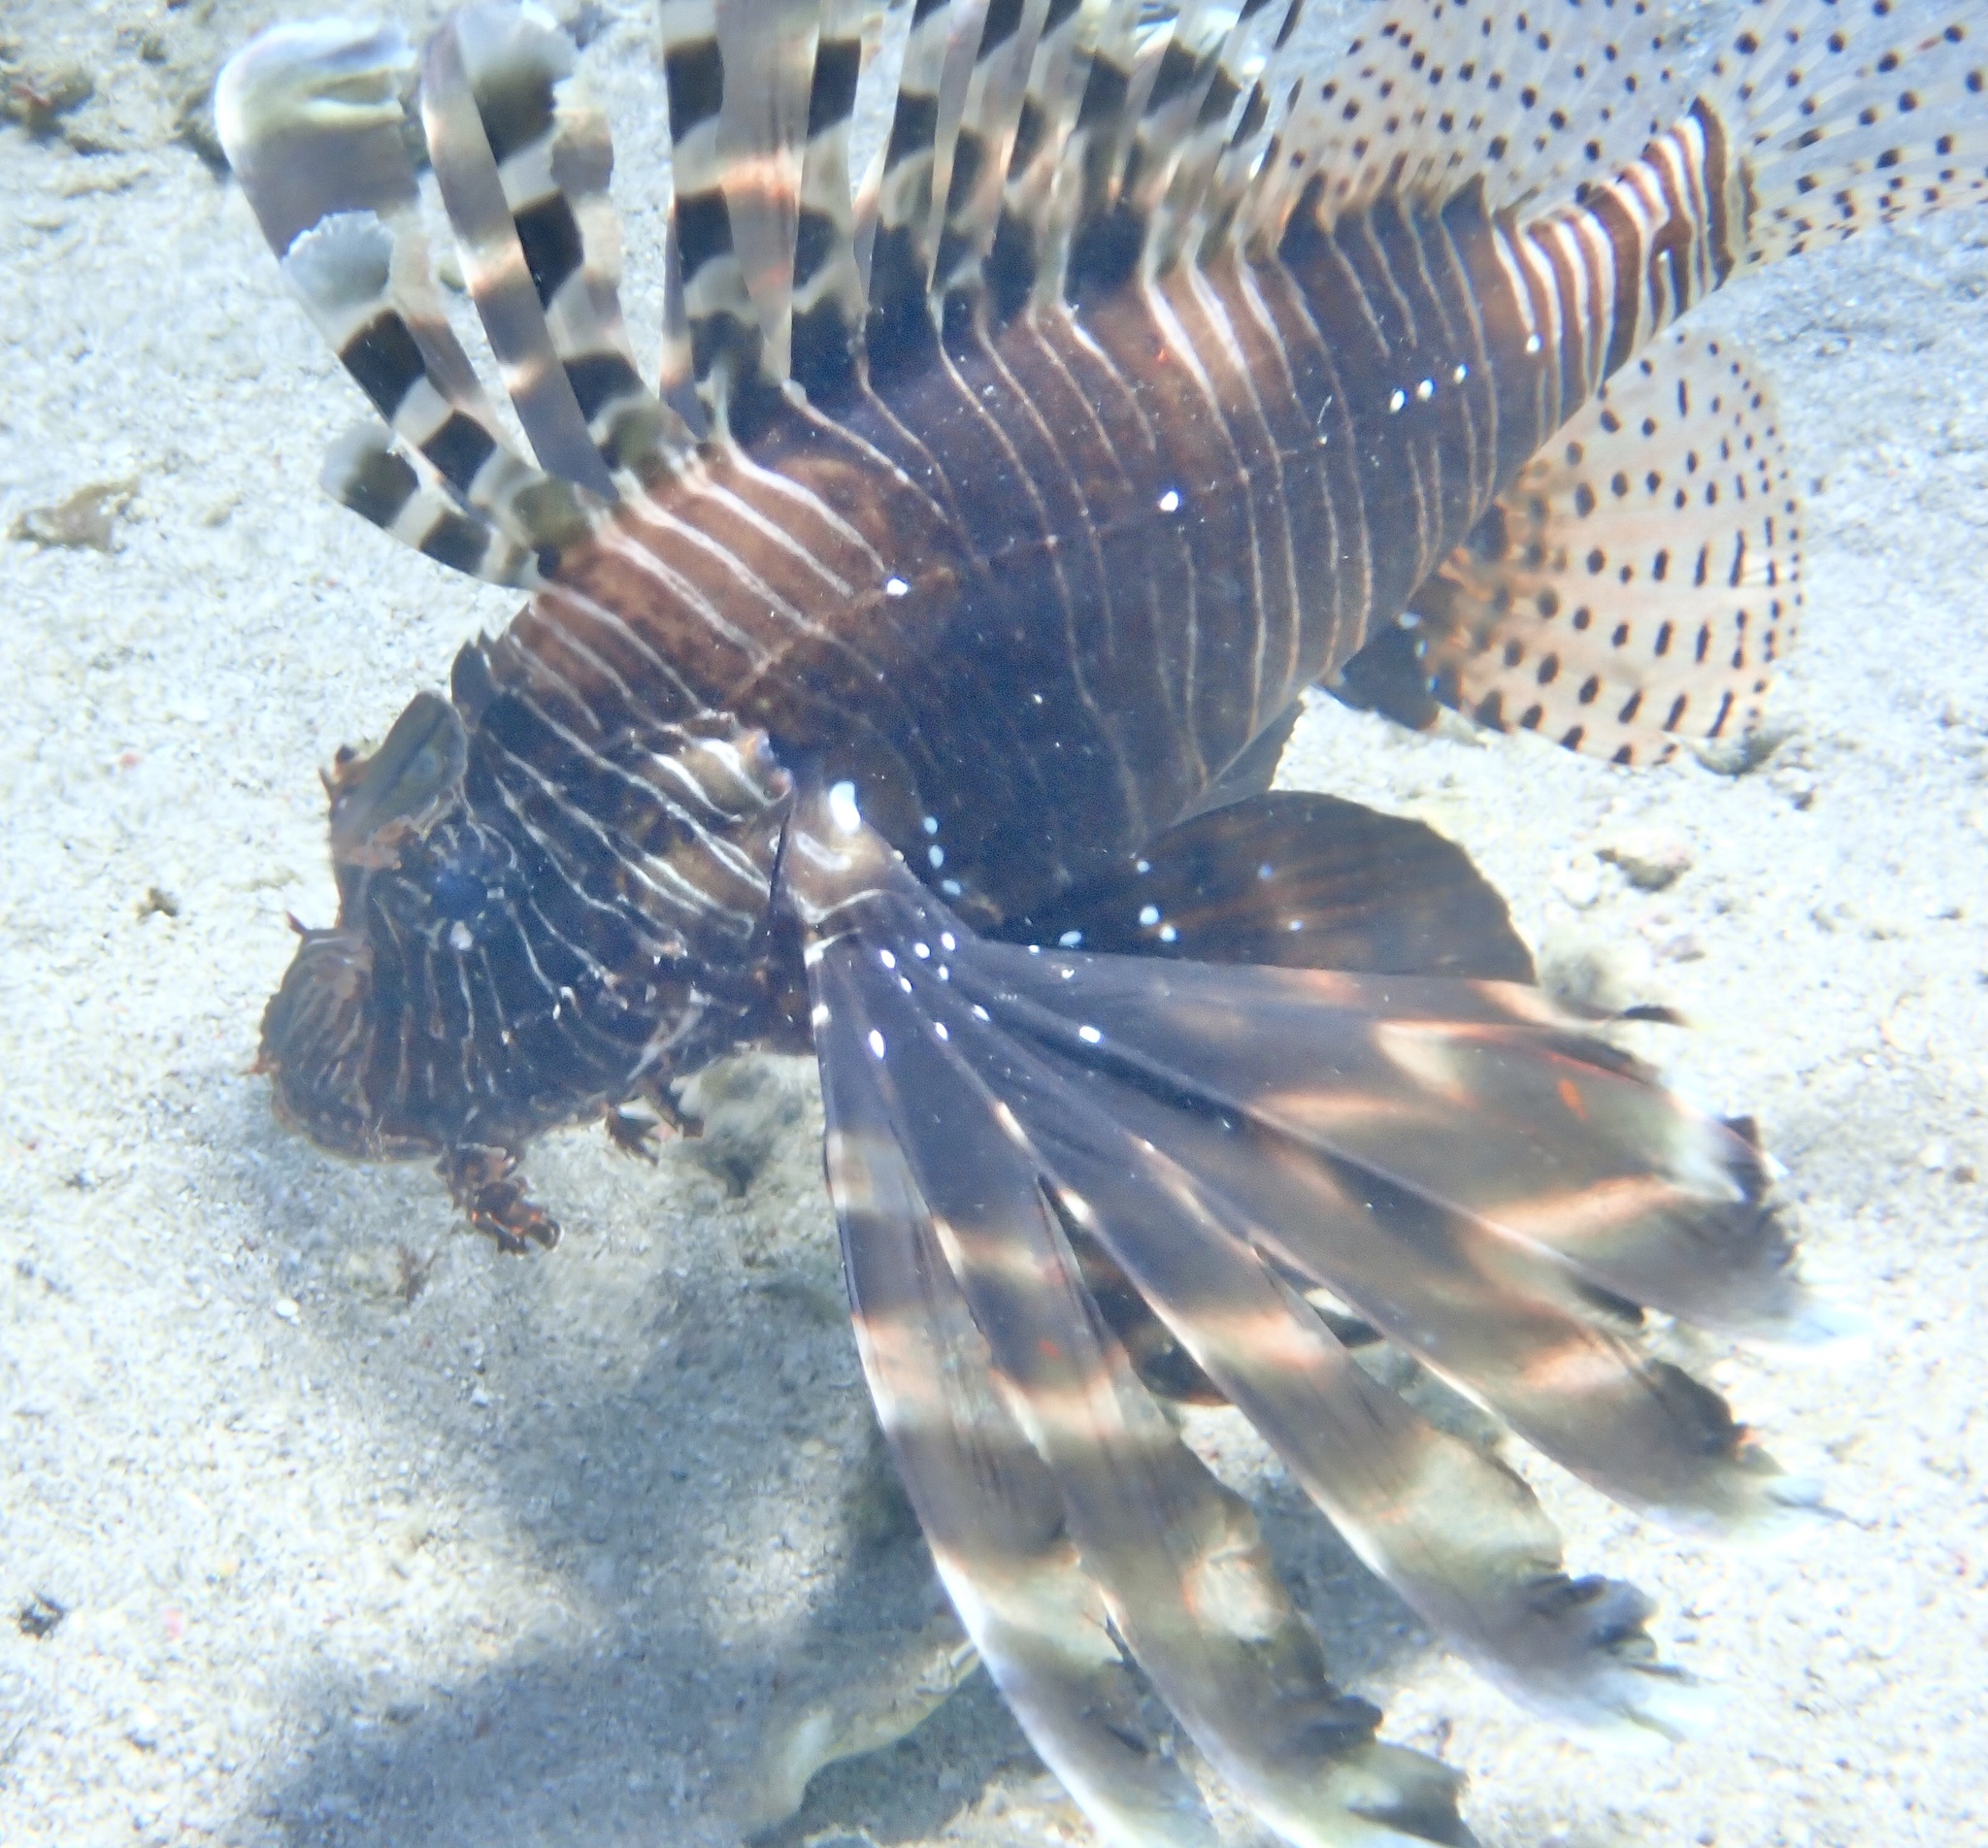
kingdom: Animalia
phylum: Chordata
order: Scorpaeniformes
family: Scorpaenidae
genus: Pterois
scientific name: Pterois miles
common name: Devil firefish
